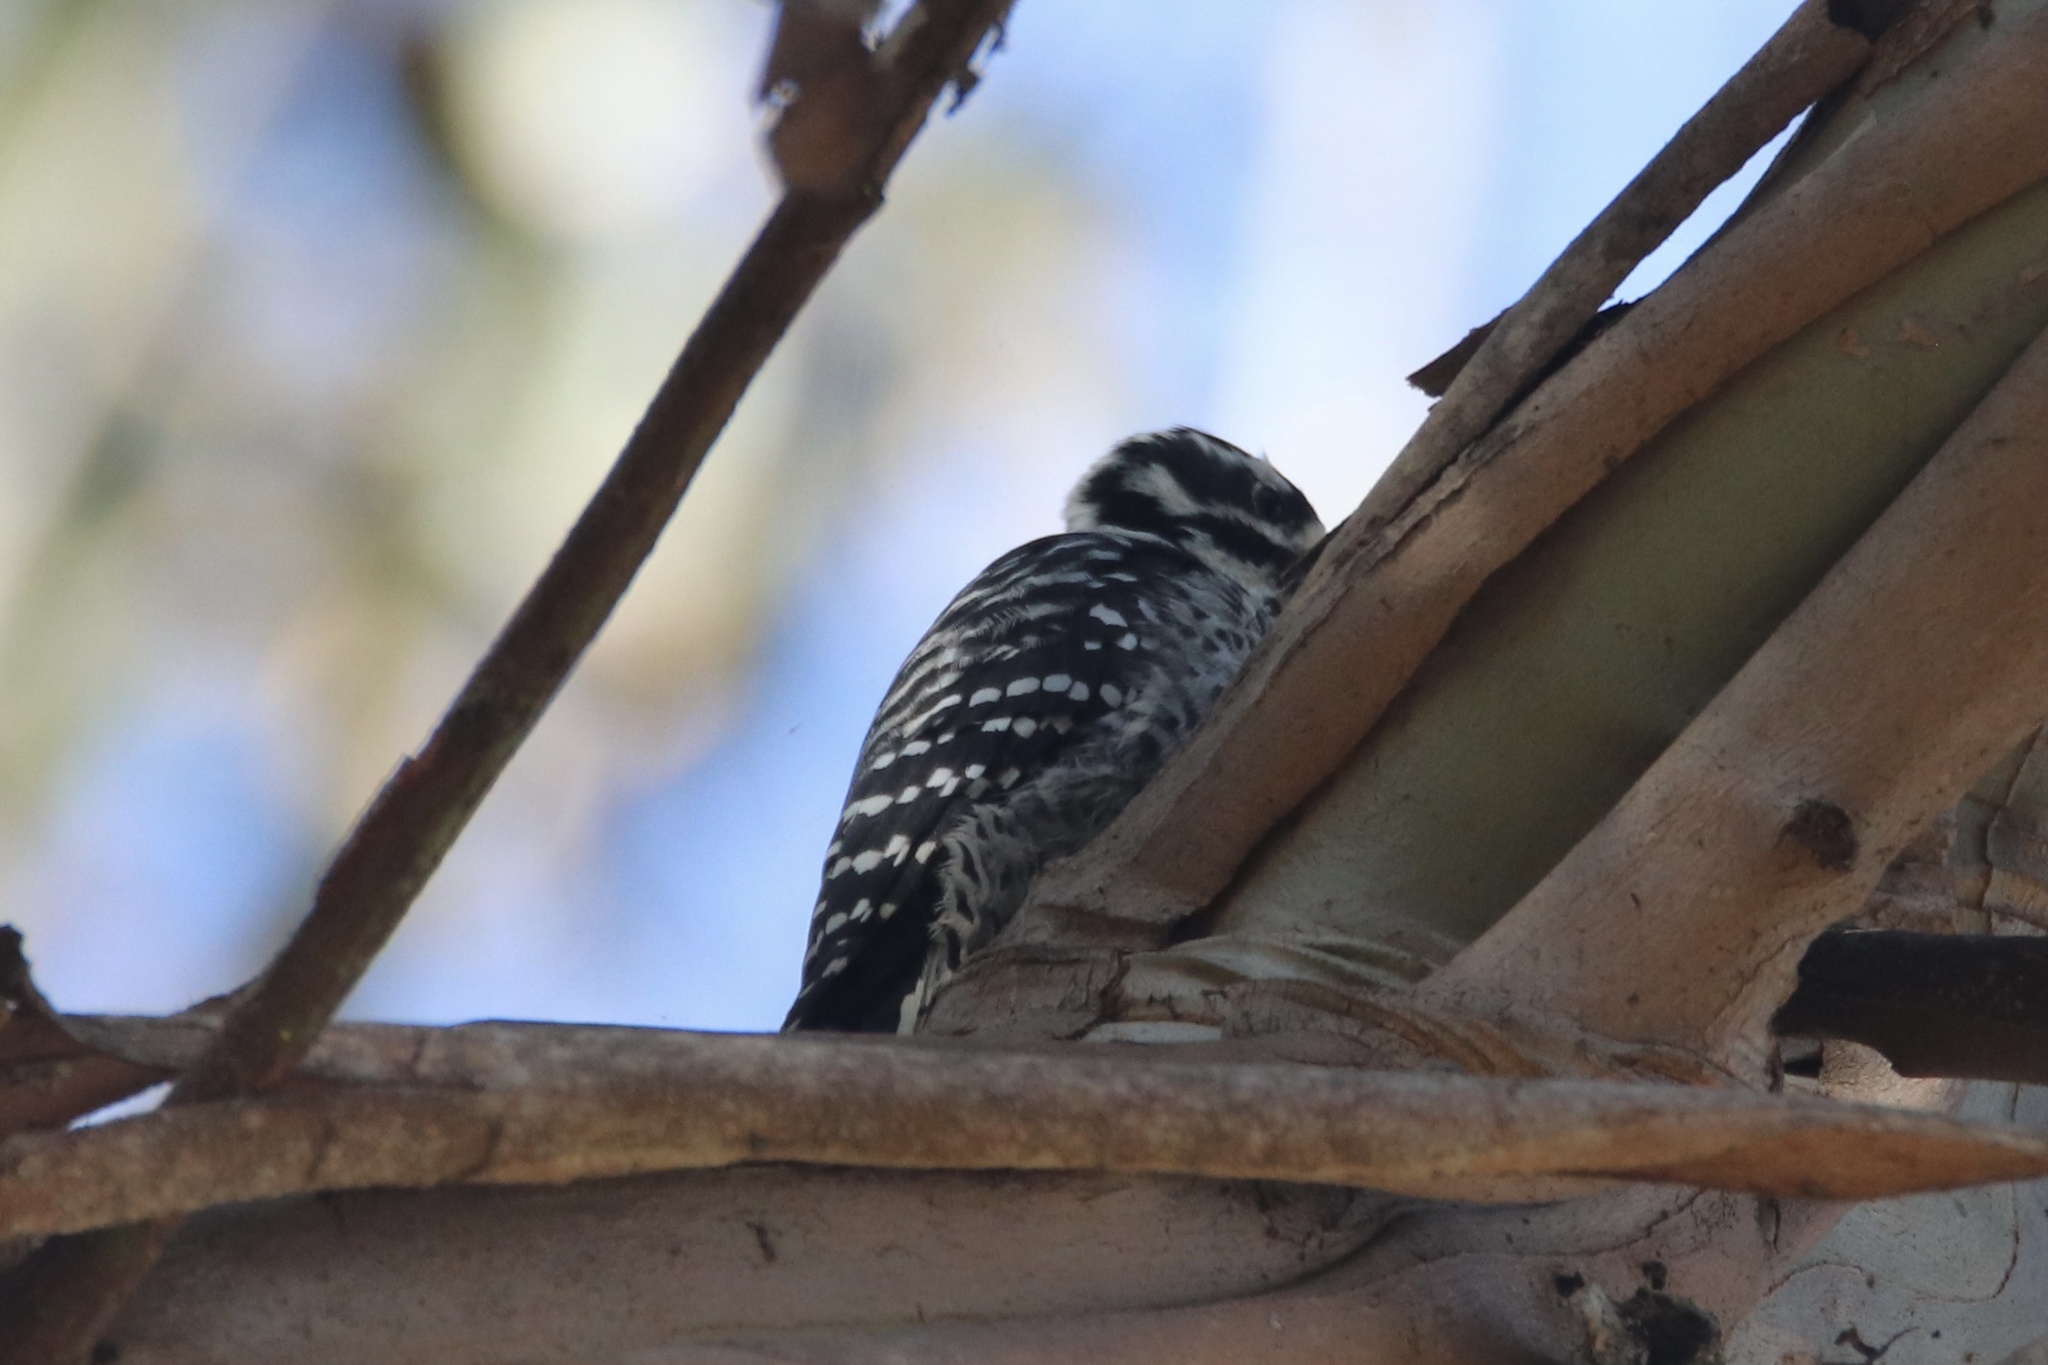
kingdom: Animalia
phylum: Chordata
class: Aves
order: Piciformes
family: Picidae
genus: Dryobates
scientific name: Dryobates nuttallii
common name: Nuttall's woodpecker
